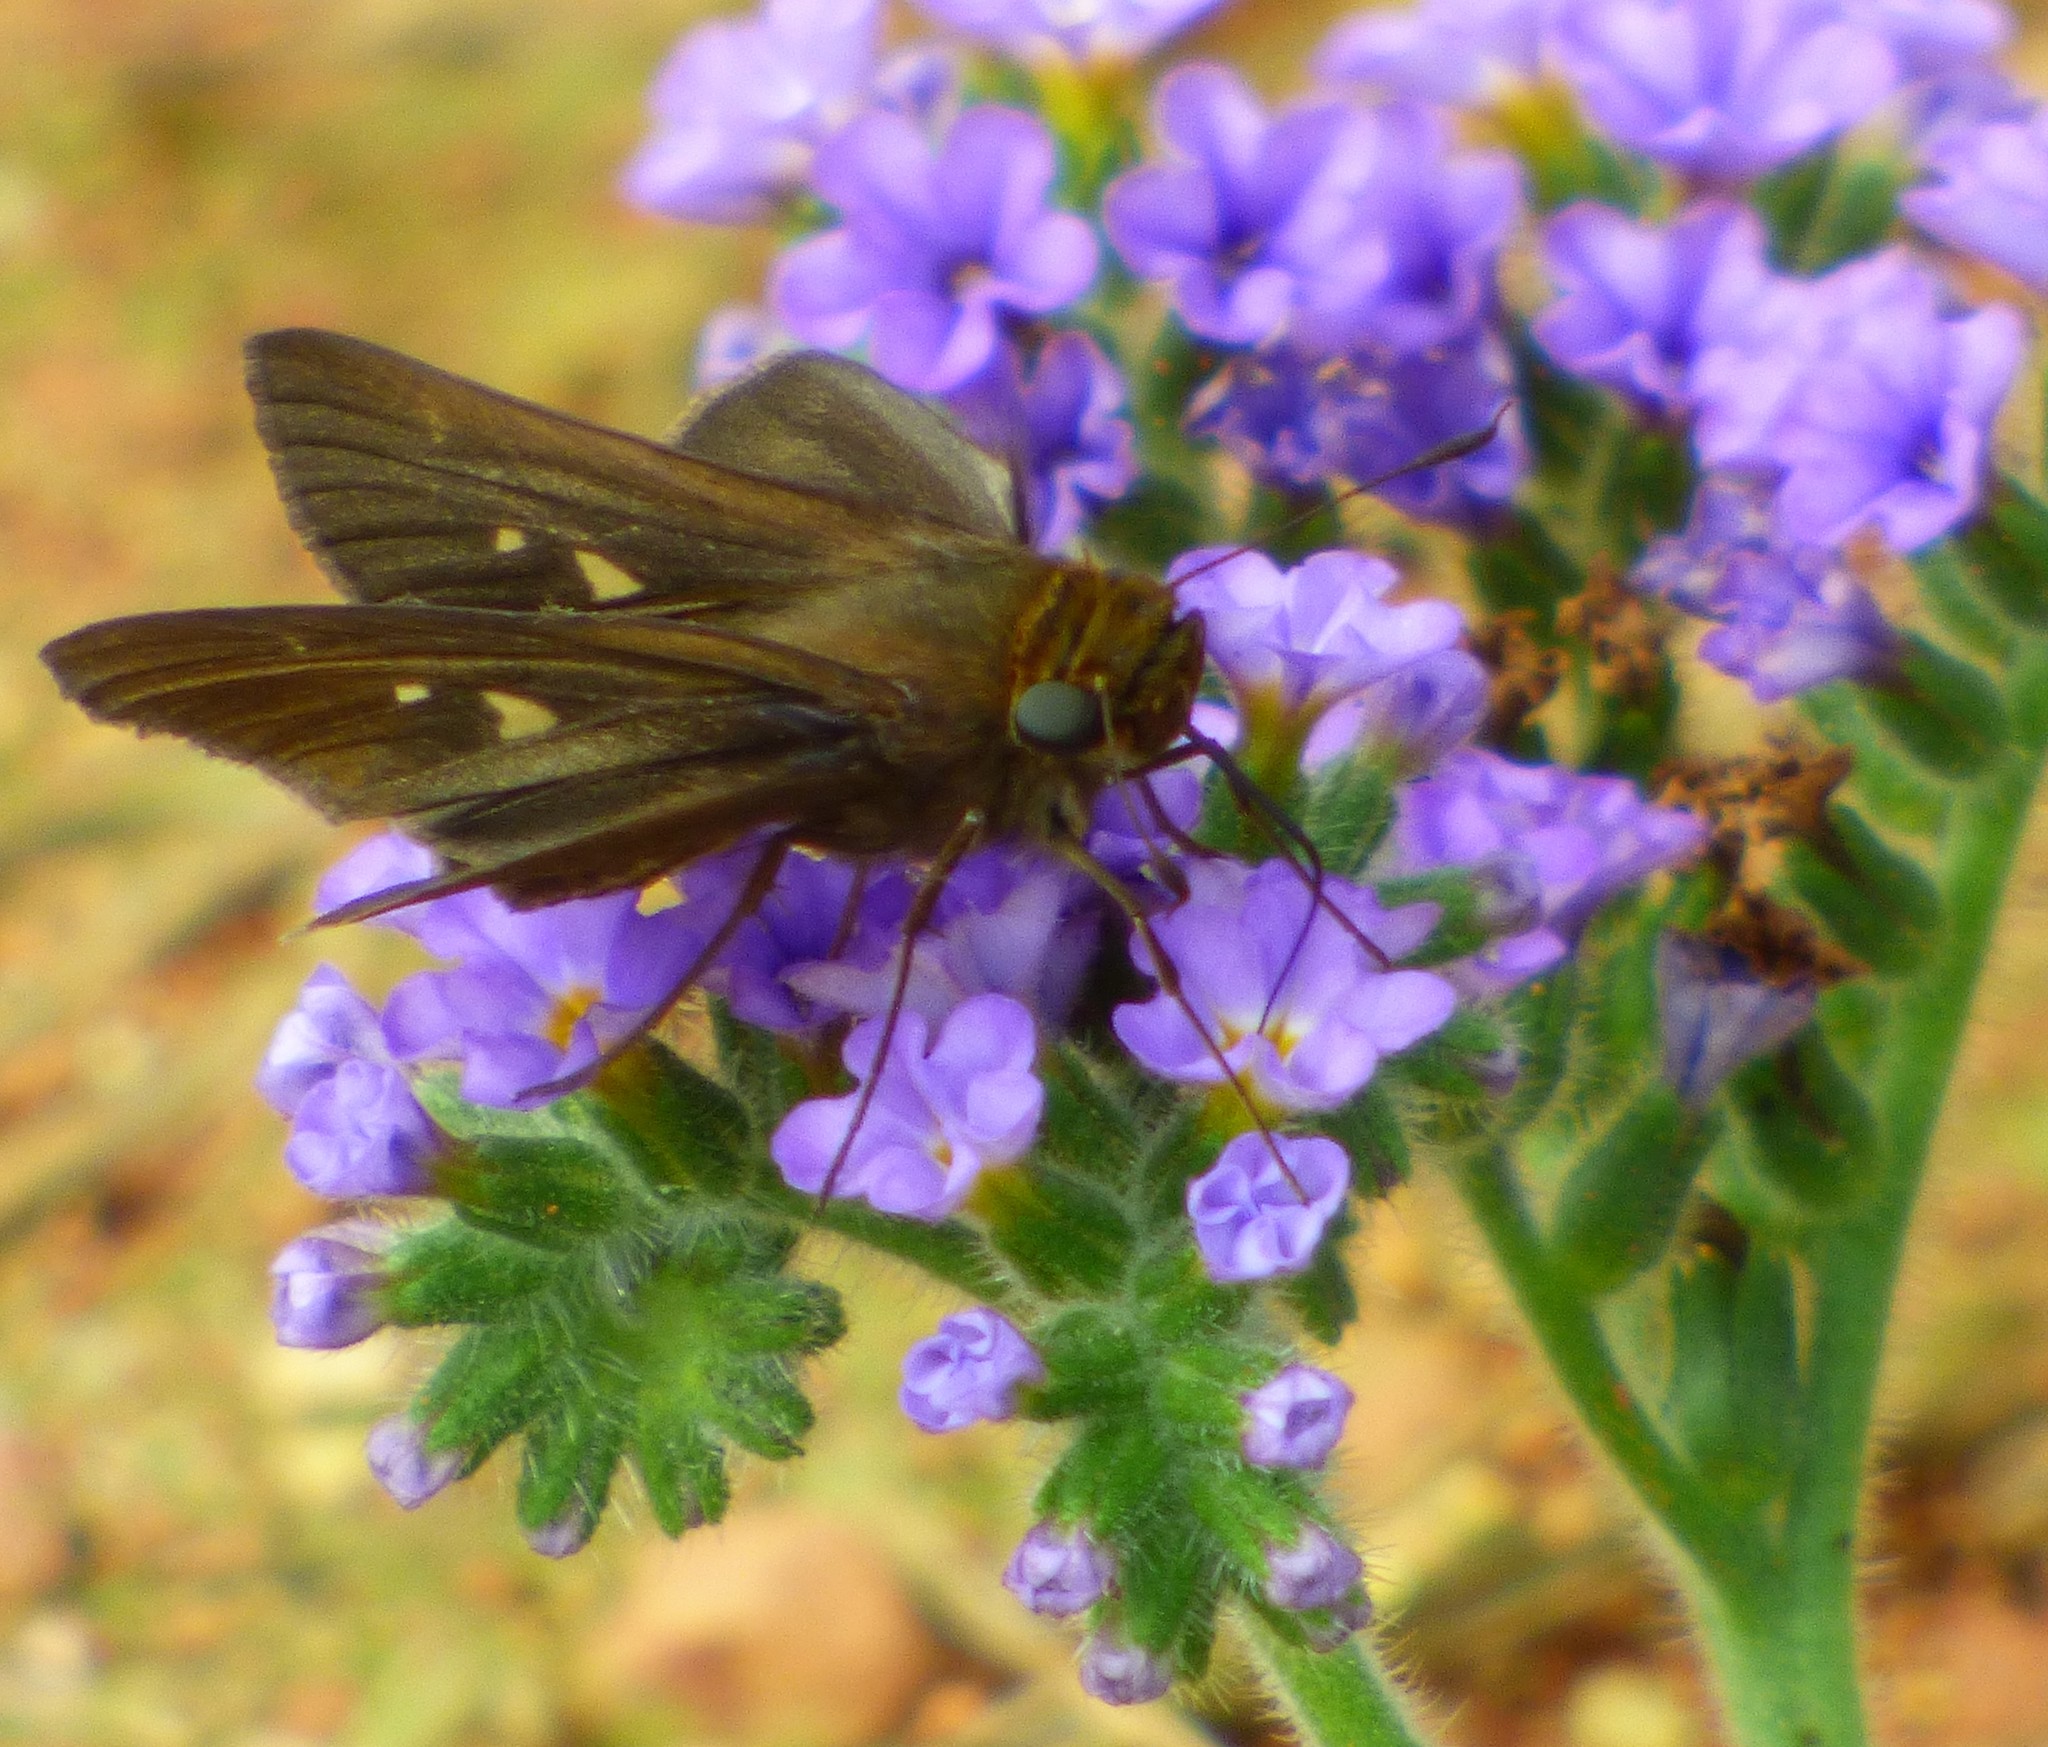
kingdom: Animalia
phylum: Arthropoda
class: Insecta
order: Lepidoptera
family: Hesperiidae
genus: Panoquina
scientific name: Panoquina ocola
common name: Ocola skipper
